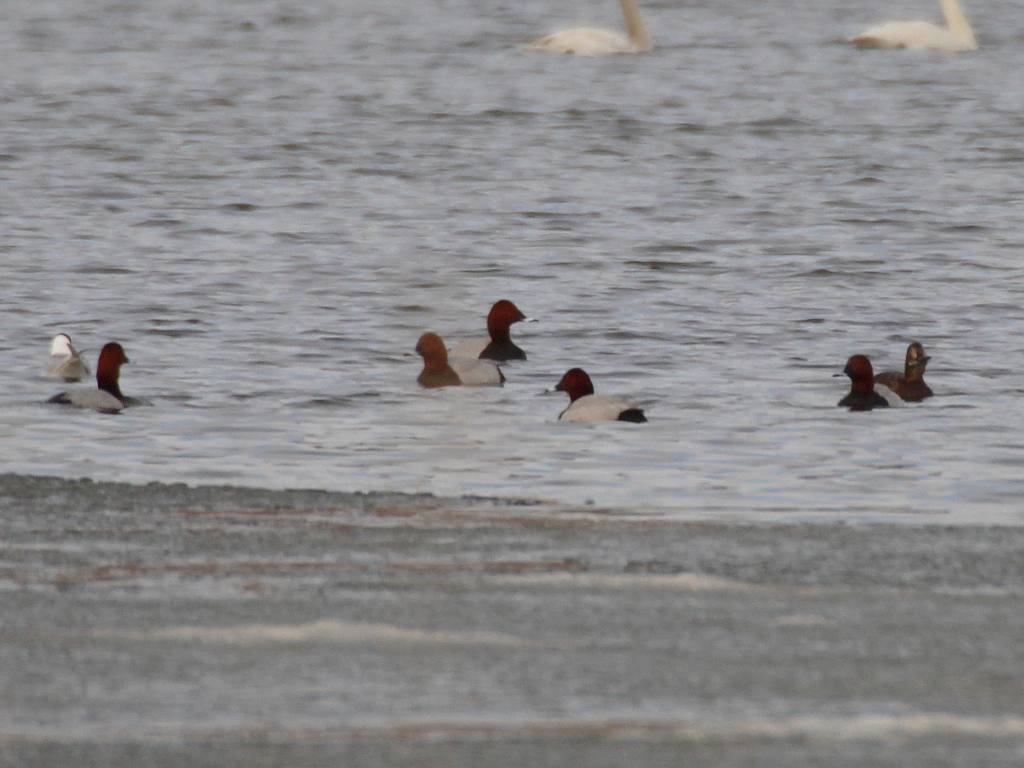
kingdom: Animalia
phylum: Chordata
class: Aves
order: Anseriformes
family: Anatidae
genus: Aythya
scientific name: Aythya ferina
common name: Common pochard
